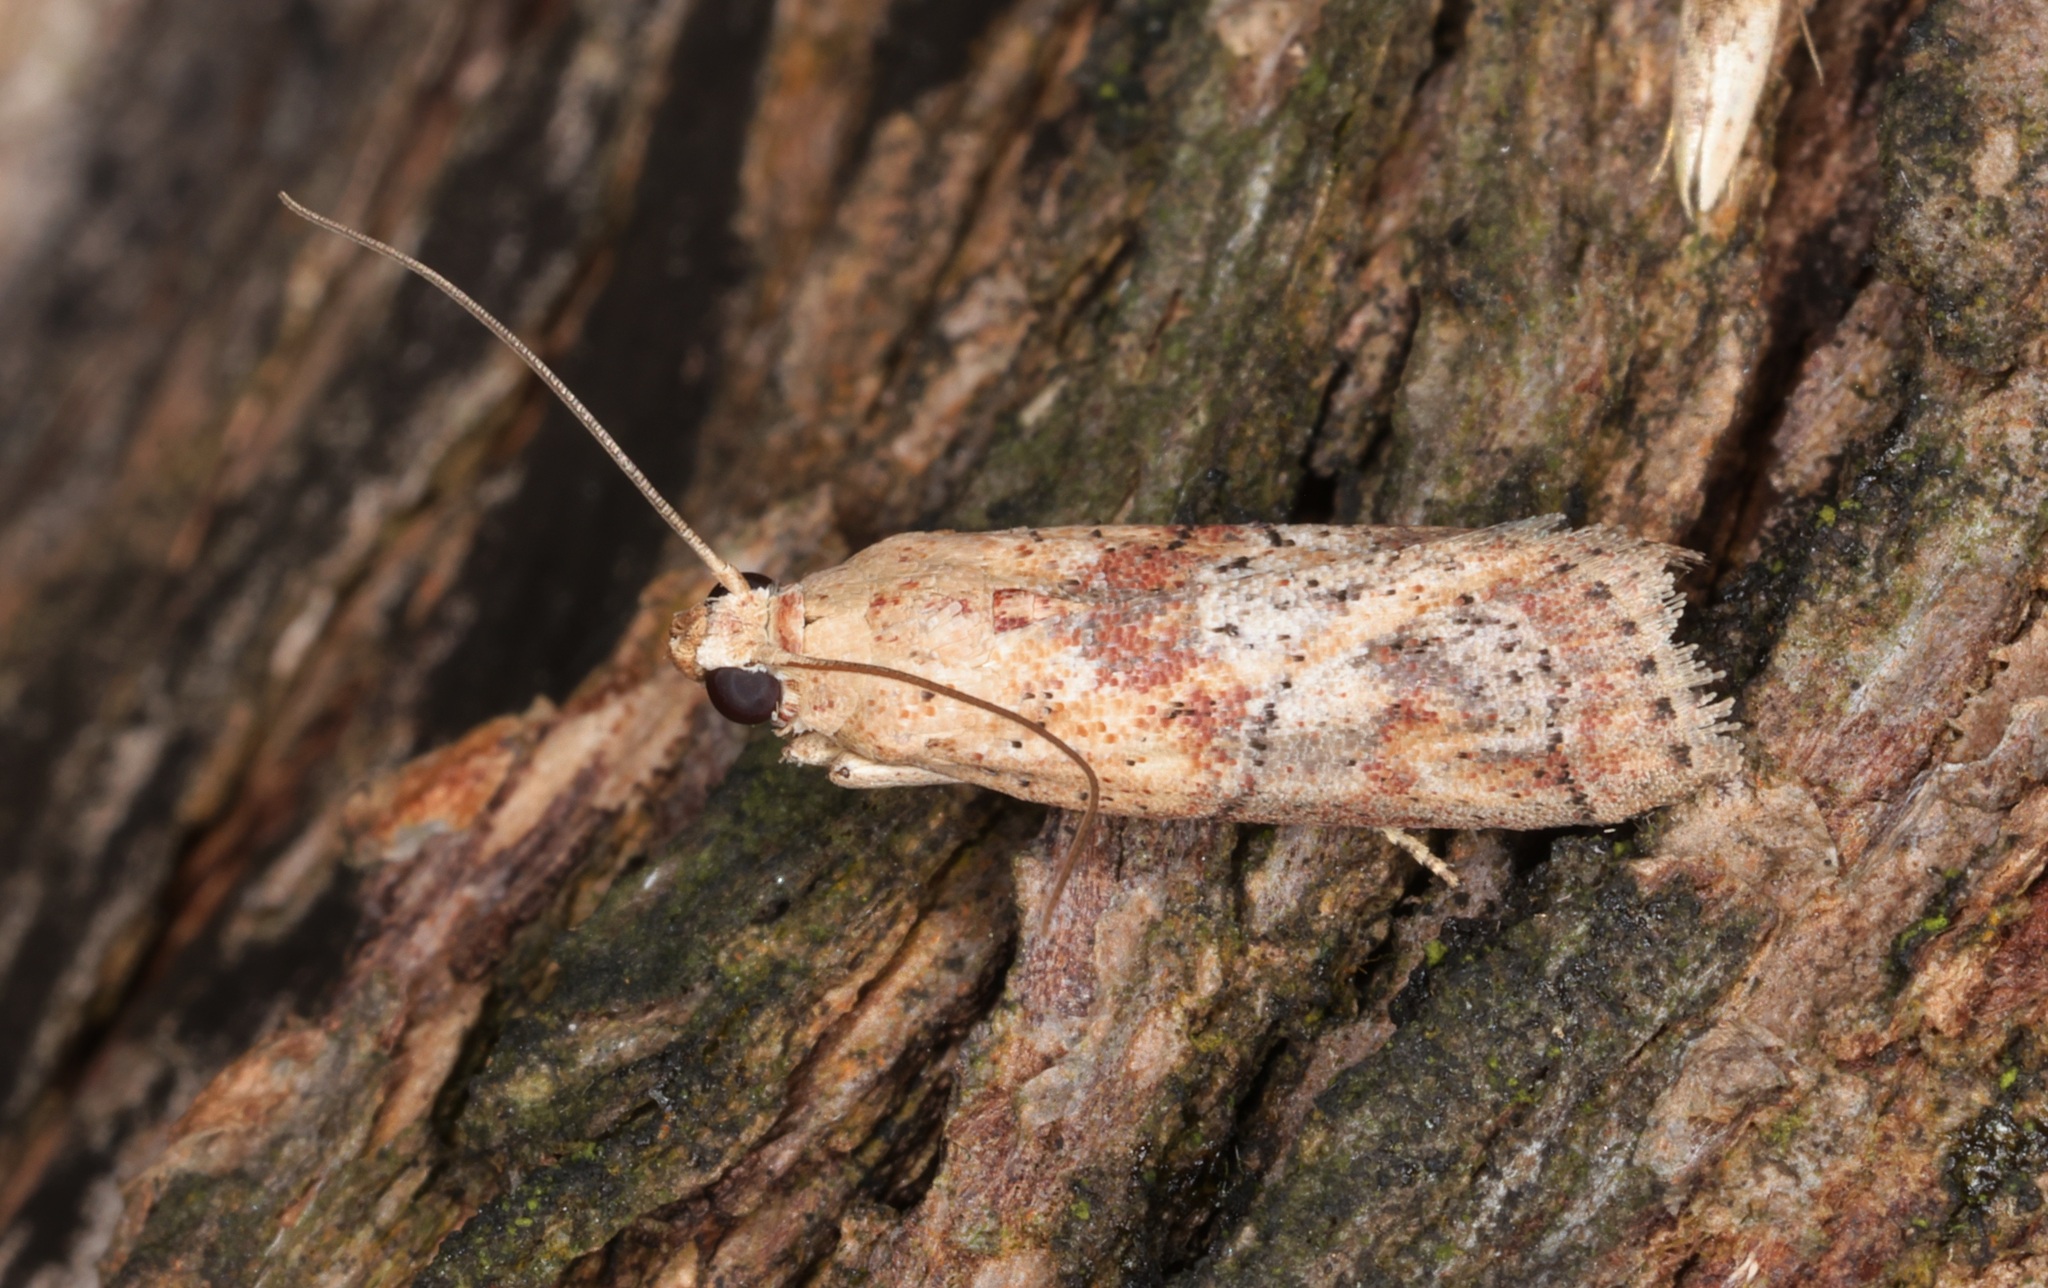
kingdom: Animalia
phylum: Arthropoda
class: Insecta
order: Lepidoptera
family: Pyralidae
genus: Nephopterix
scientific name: Nephopterix ochribasalis
